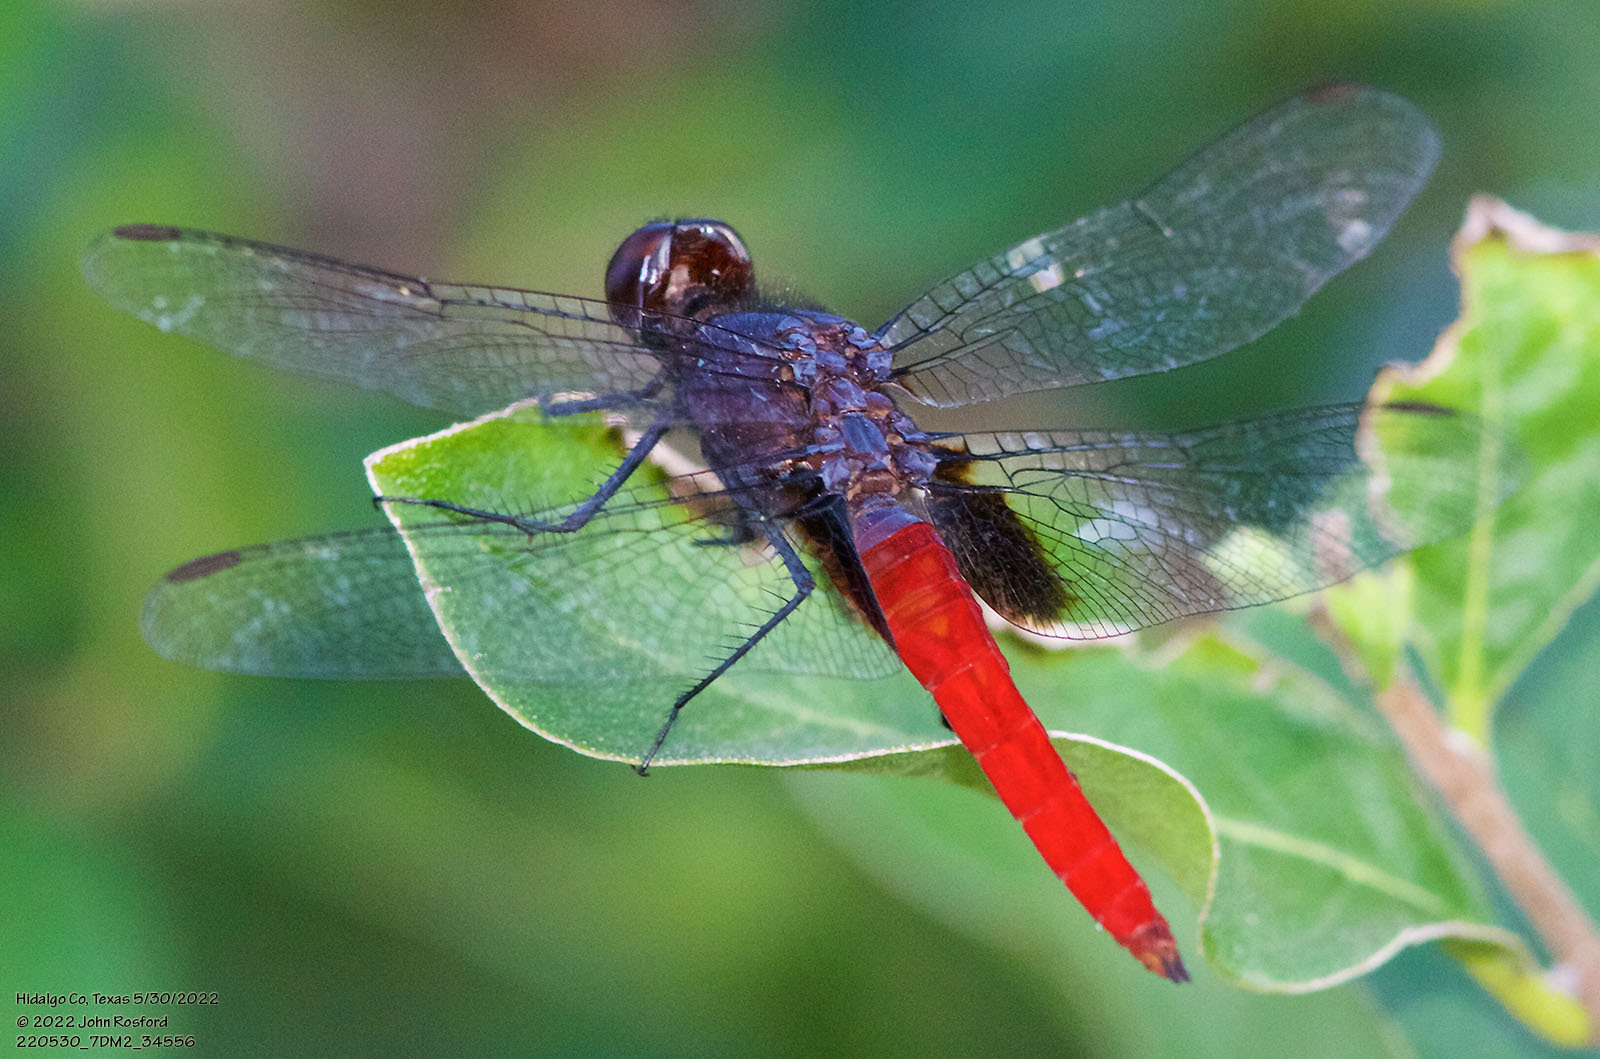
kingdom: Animalia
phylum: Arthropoda
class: Insecta
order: Odonata
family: Libellulidae
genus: Planiplax
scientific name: Planiplax sanguiniventris
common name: Mexican scarlet-tail
